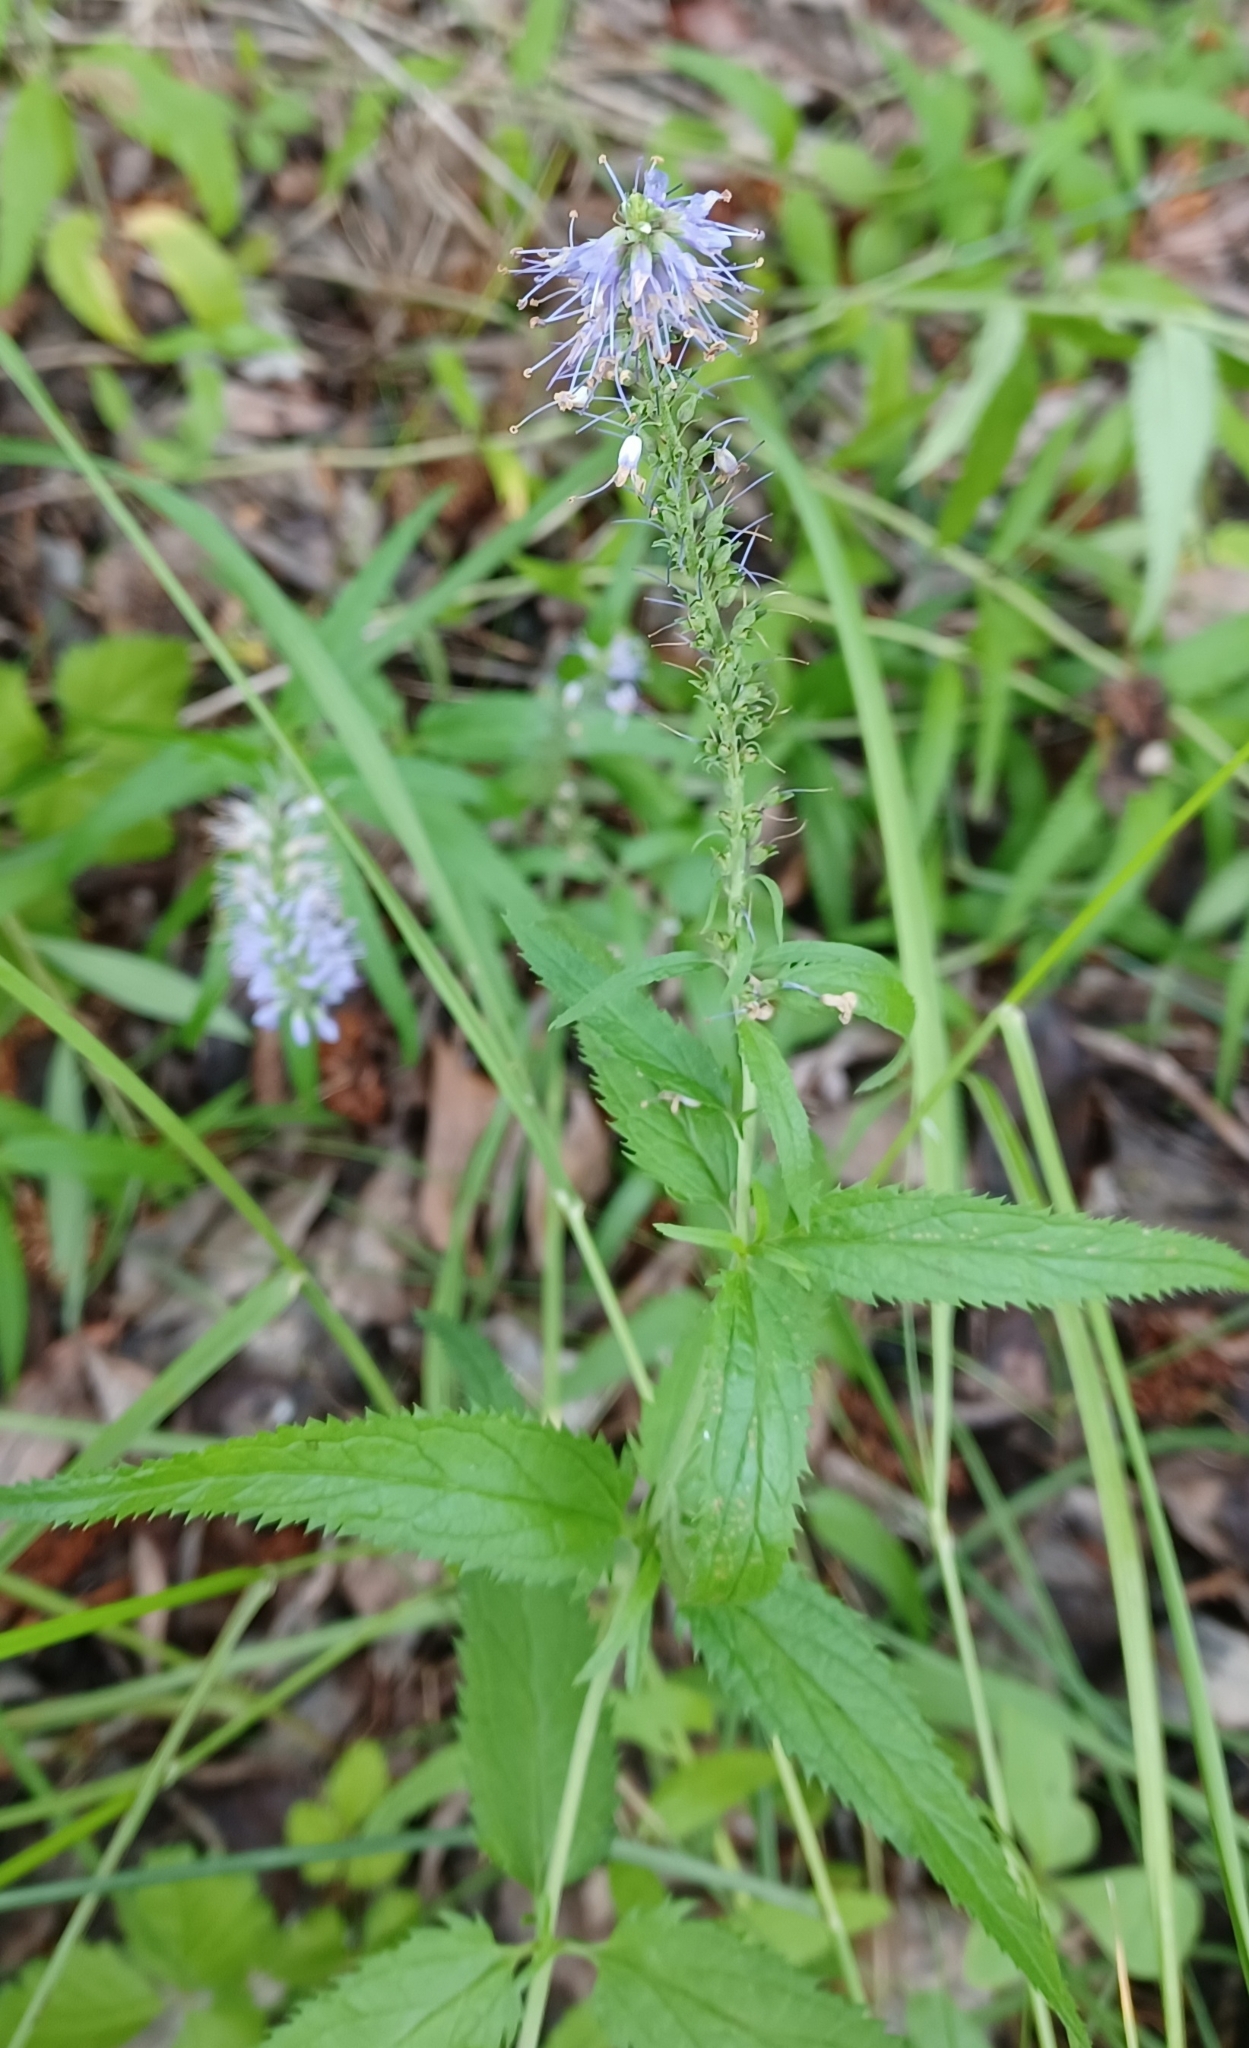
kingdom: Plantae
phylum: Tracheophyta
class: Magnoliopsida
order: Lamiales
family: Plantaginaceae
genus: Veronica
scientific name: Veronica longifolia
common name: Garden speedwell
